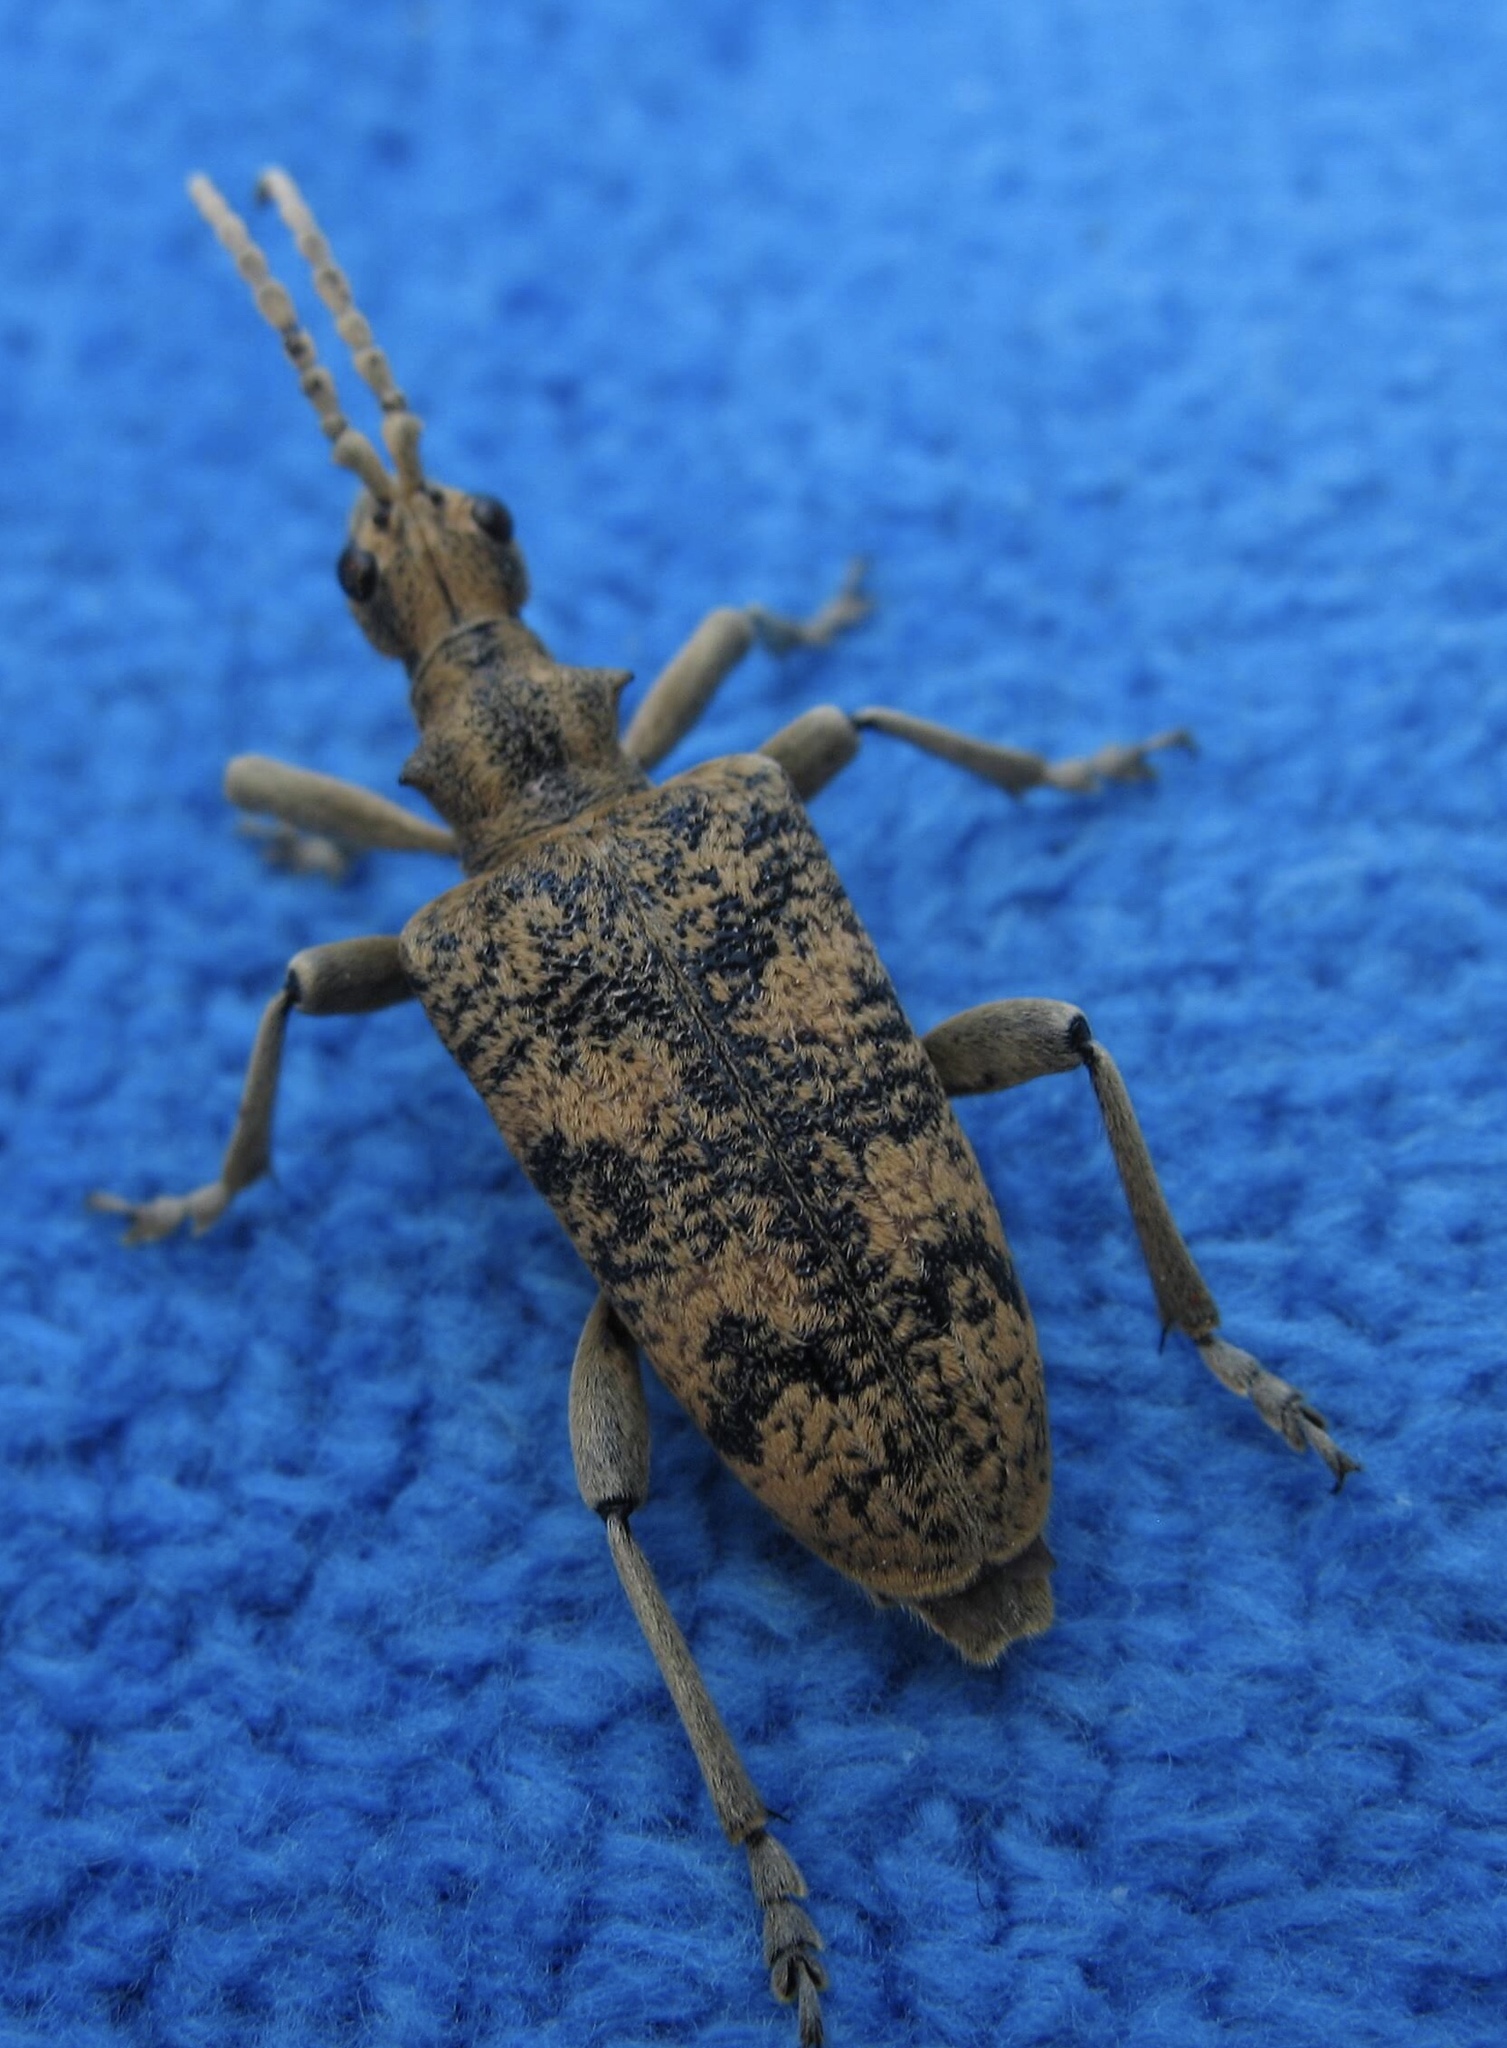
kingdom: Animalia
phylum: Arthropoda
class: Insecta
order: Coleoptera
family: Cerambycidae
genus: Rhagium
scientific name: Rhagium sycophanta
